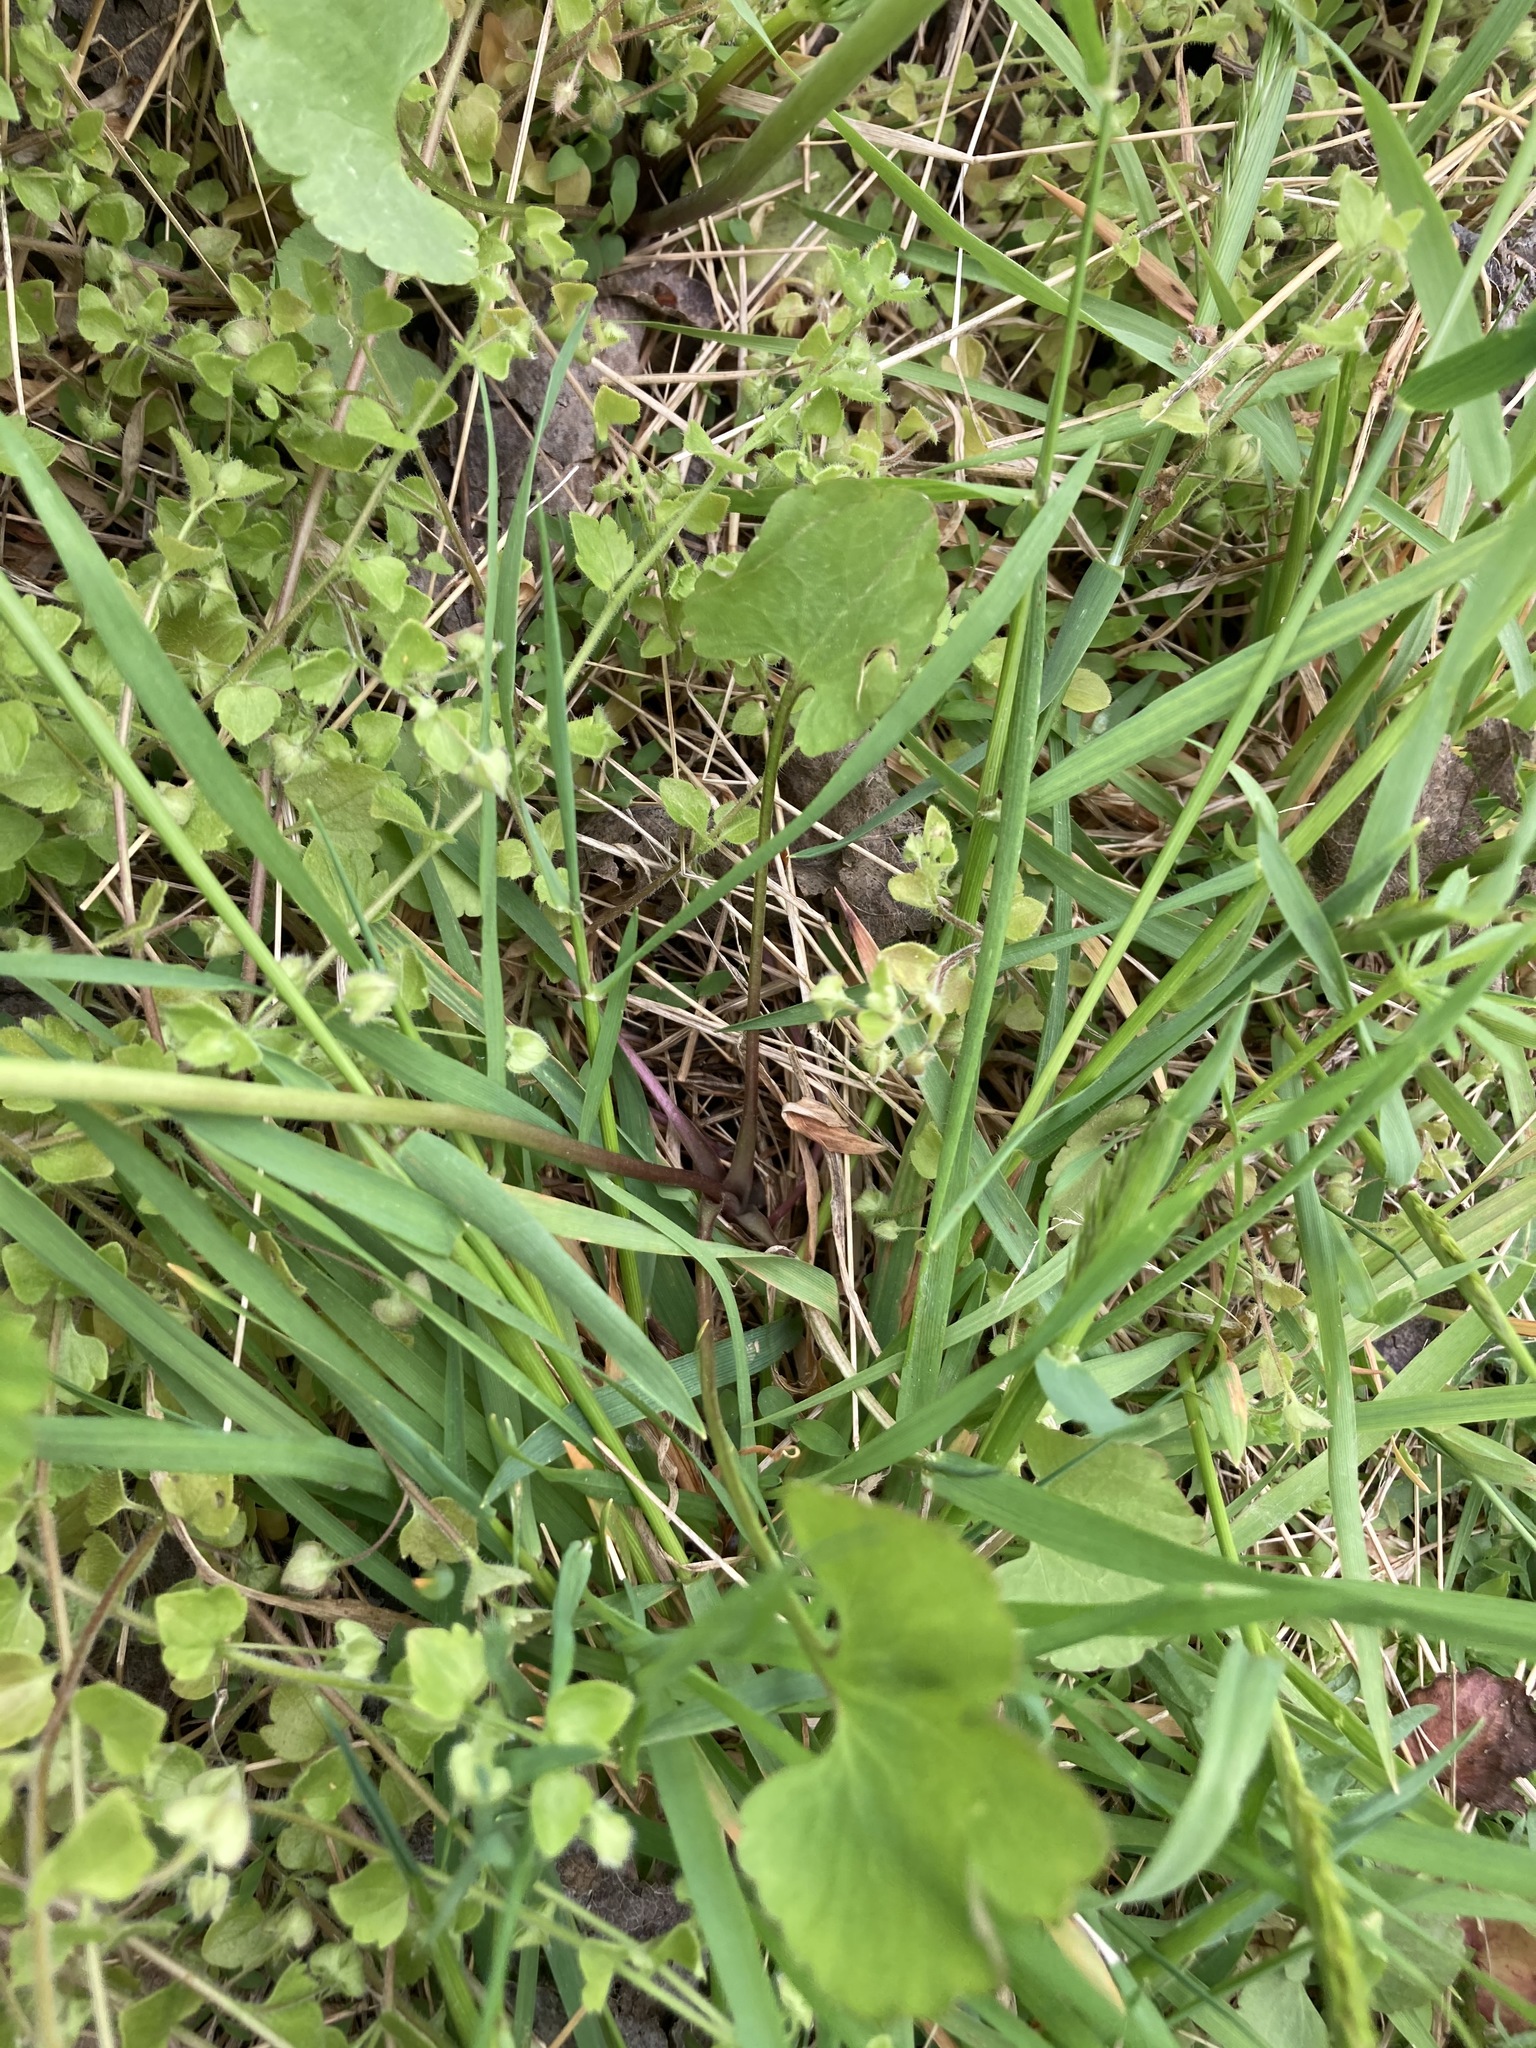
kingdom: Plantae
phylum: Tracheophyta
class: Magnoliopsida
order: Ranunculales
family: Ranunculaceae
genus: Ranunculus
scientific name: Ranunculus abortivus
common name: Early wood buttercup
